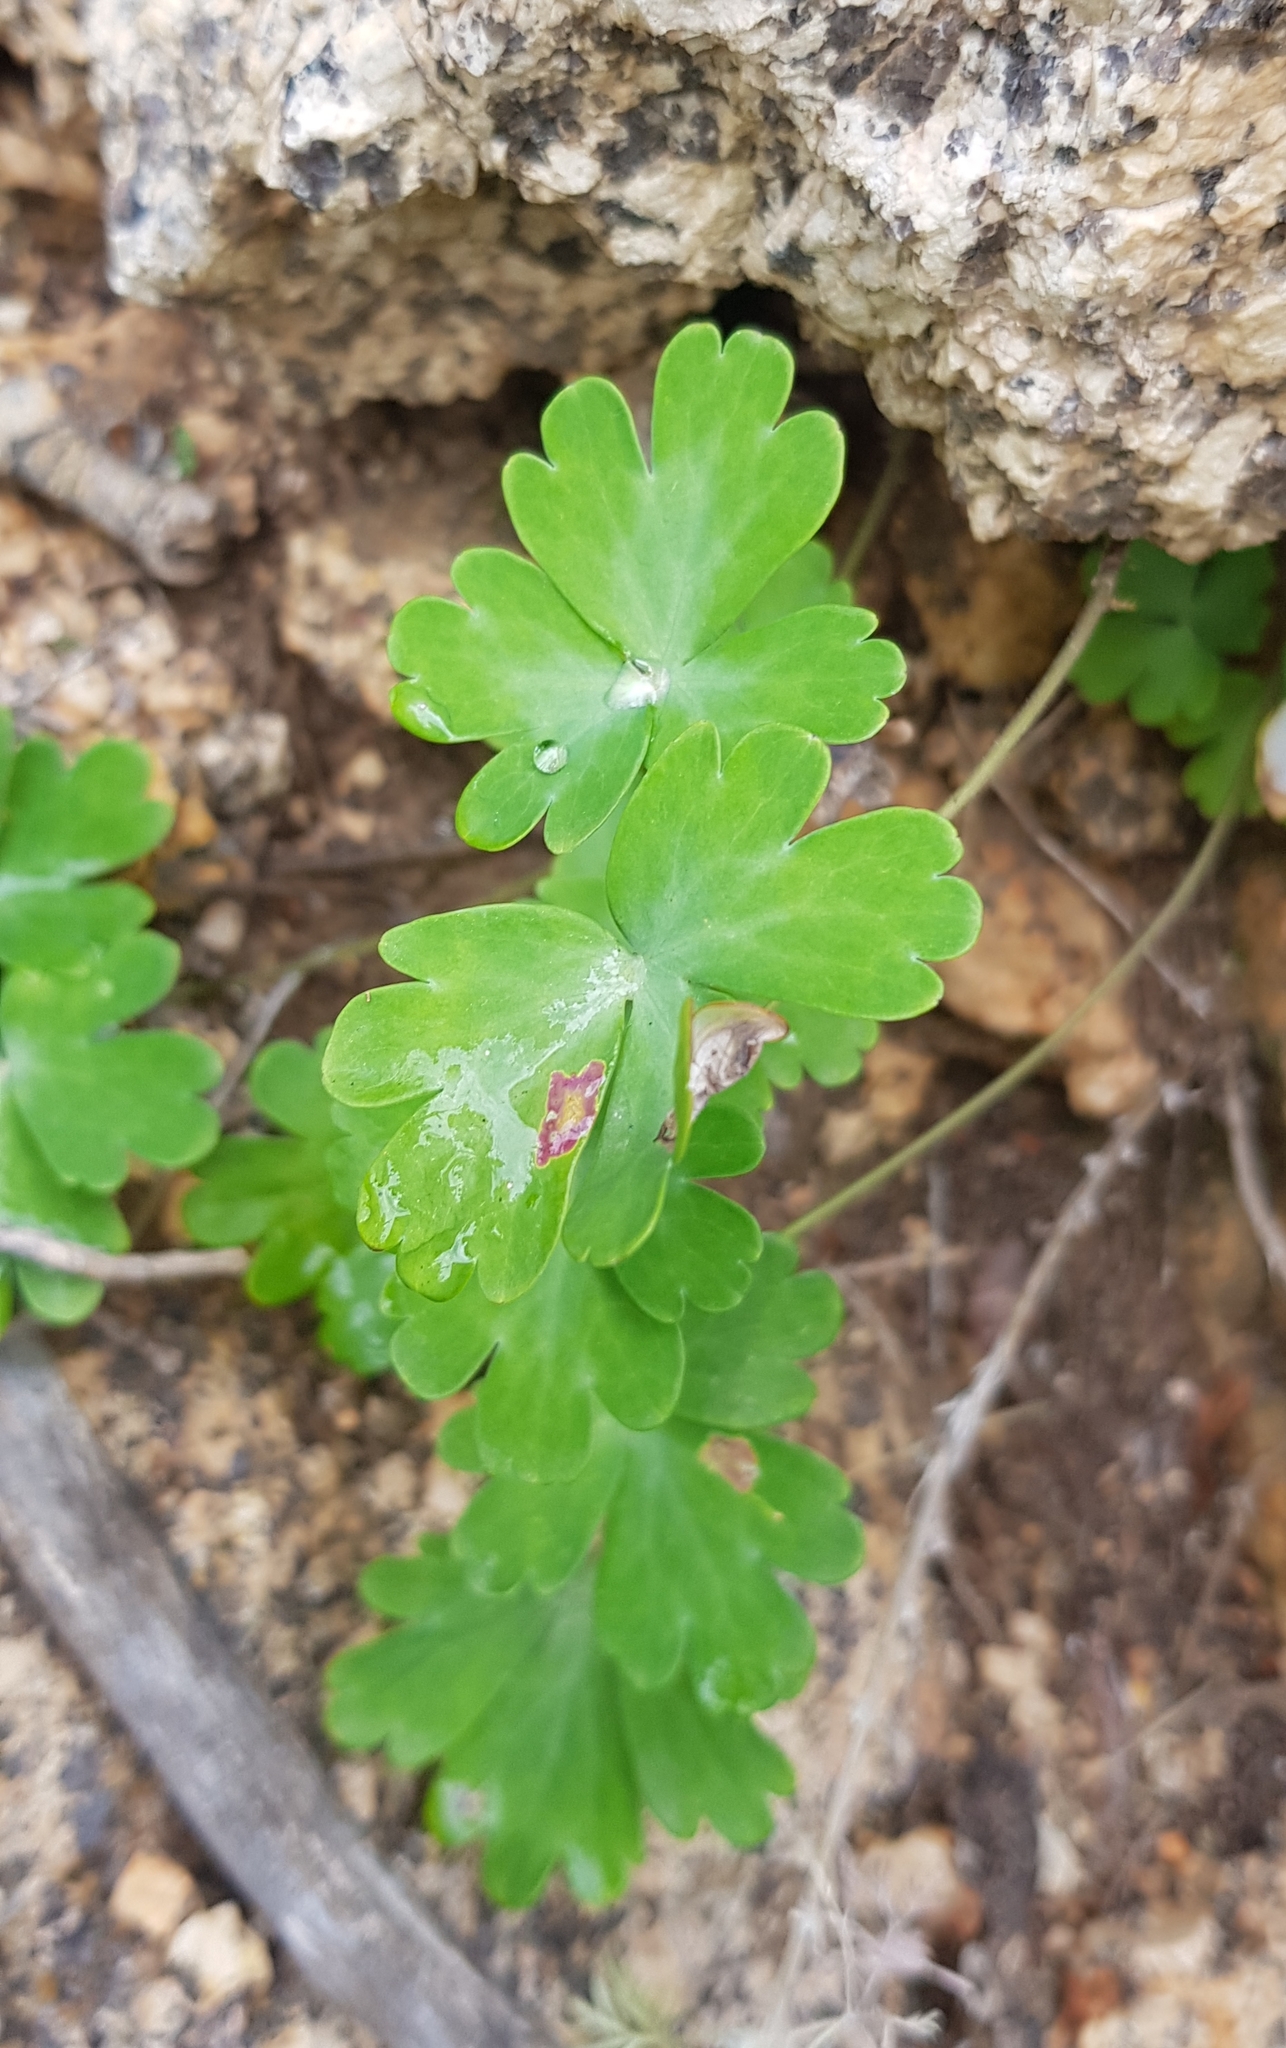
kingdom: Plantae
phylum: Tracheophyta
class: Magnoliopsida
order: Ranunculales
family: Ranunculaceae
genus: Aquilegia
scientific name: Aquilegia viridiflora
